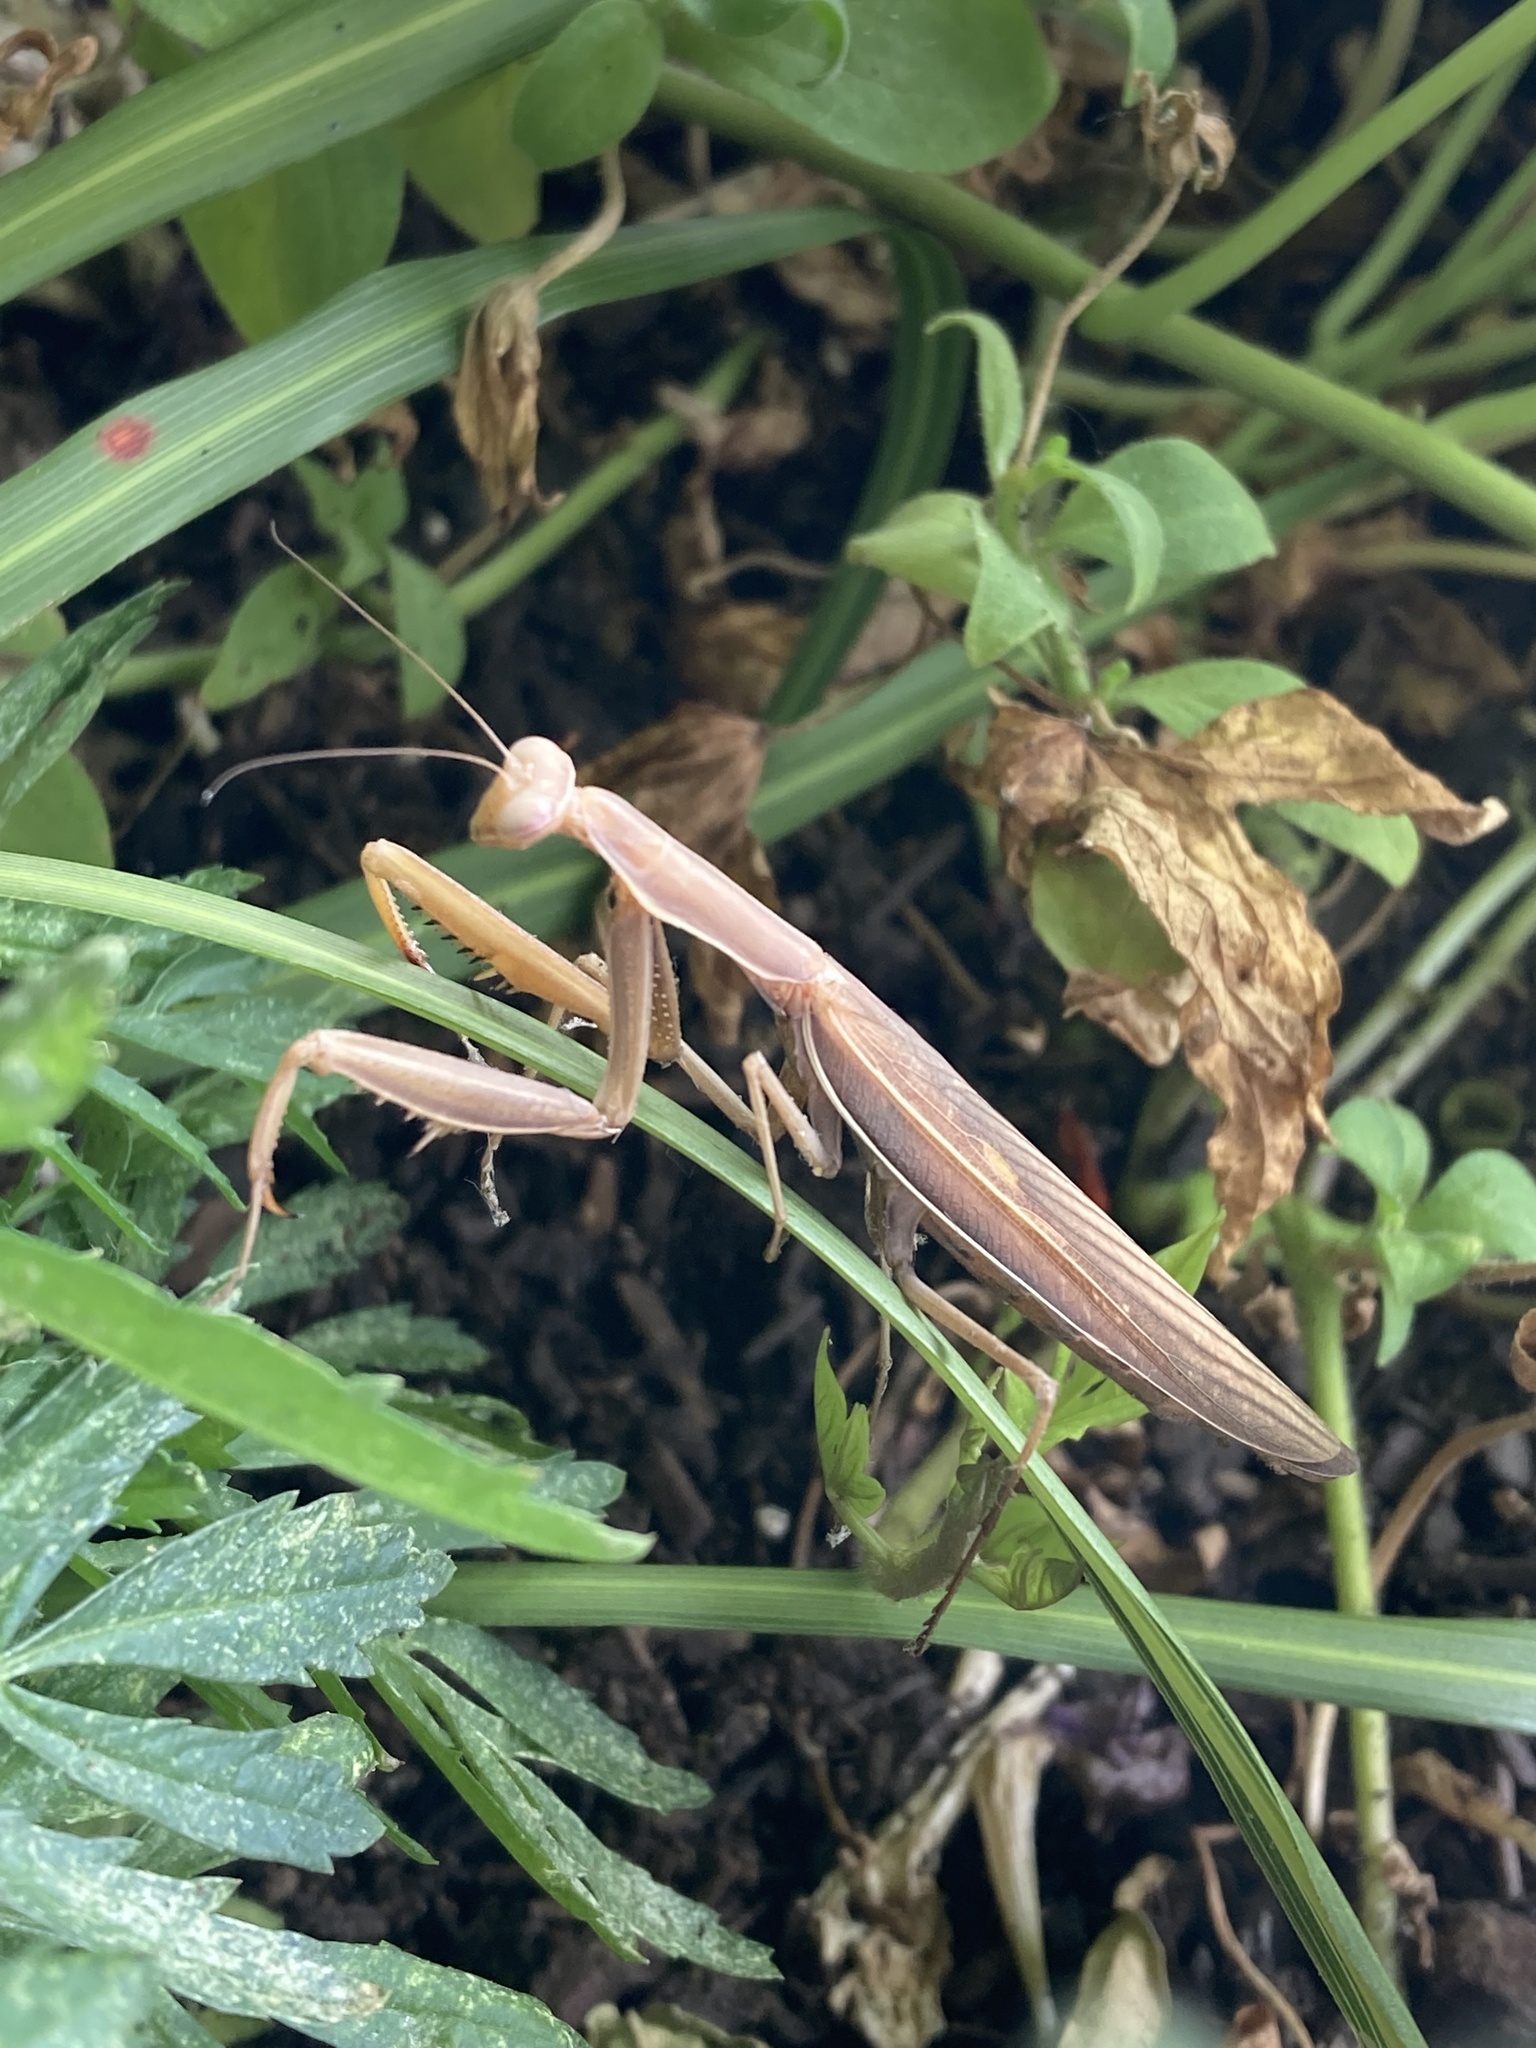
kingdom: Animalia
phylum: Arthropoda
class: Insecta
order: Mantodea
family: Mantidae
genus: Mantis
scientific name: Mantis religiosa
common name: Praying mantis
